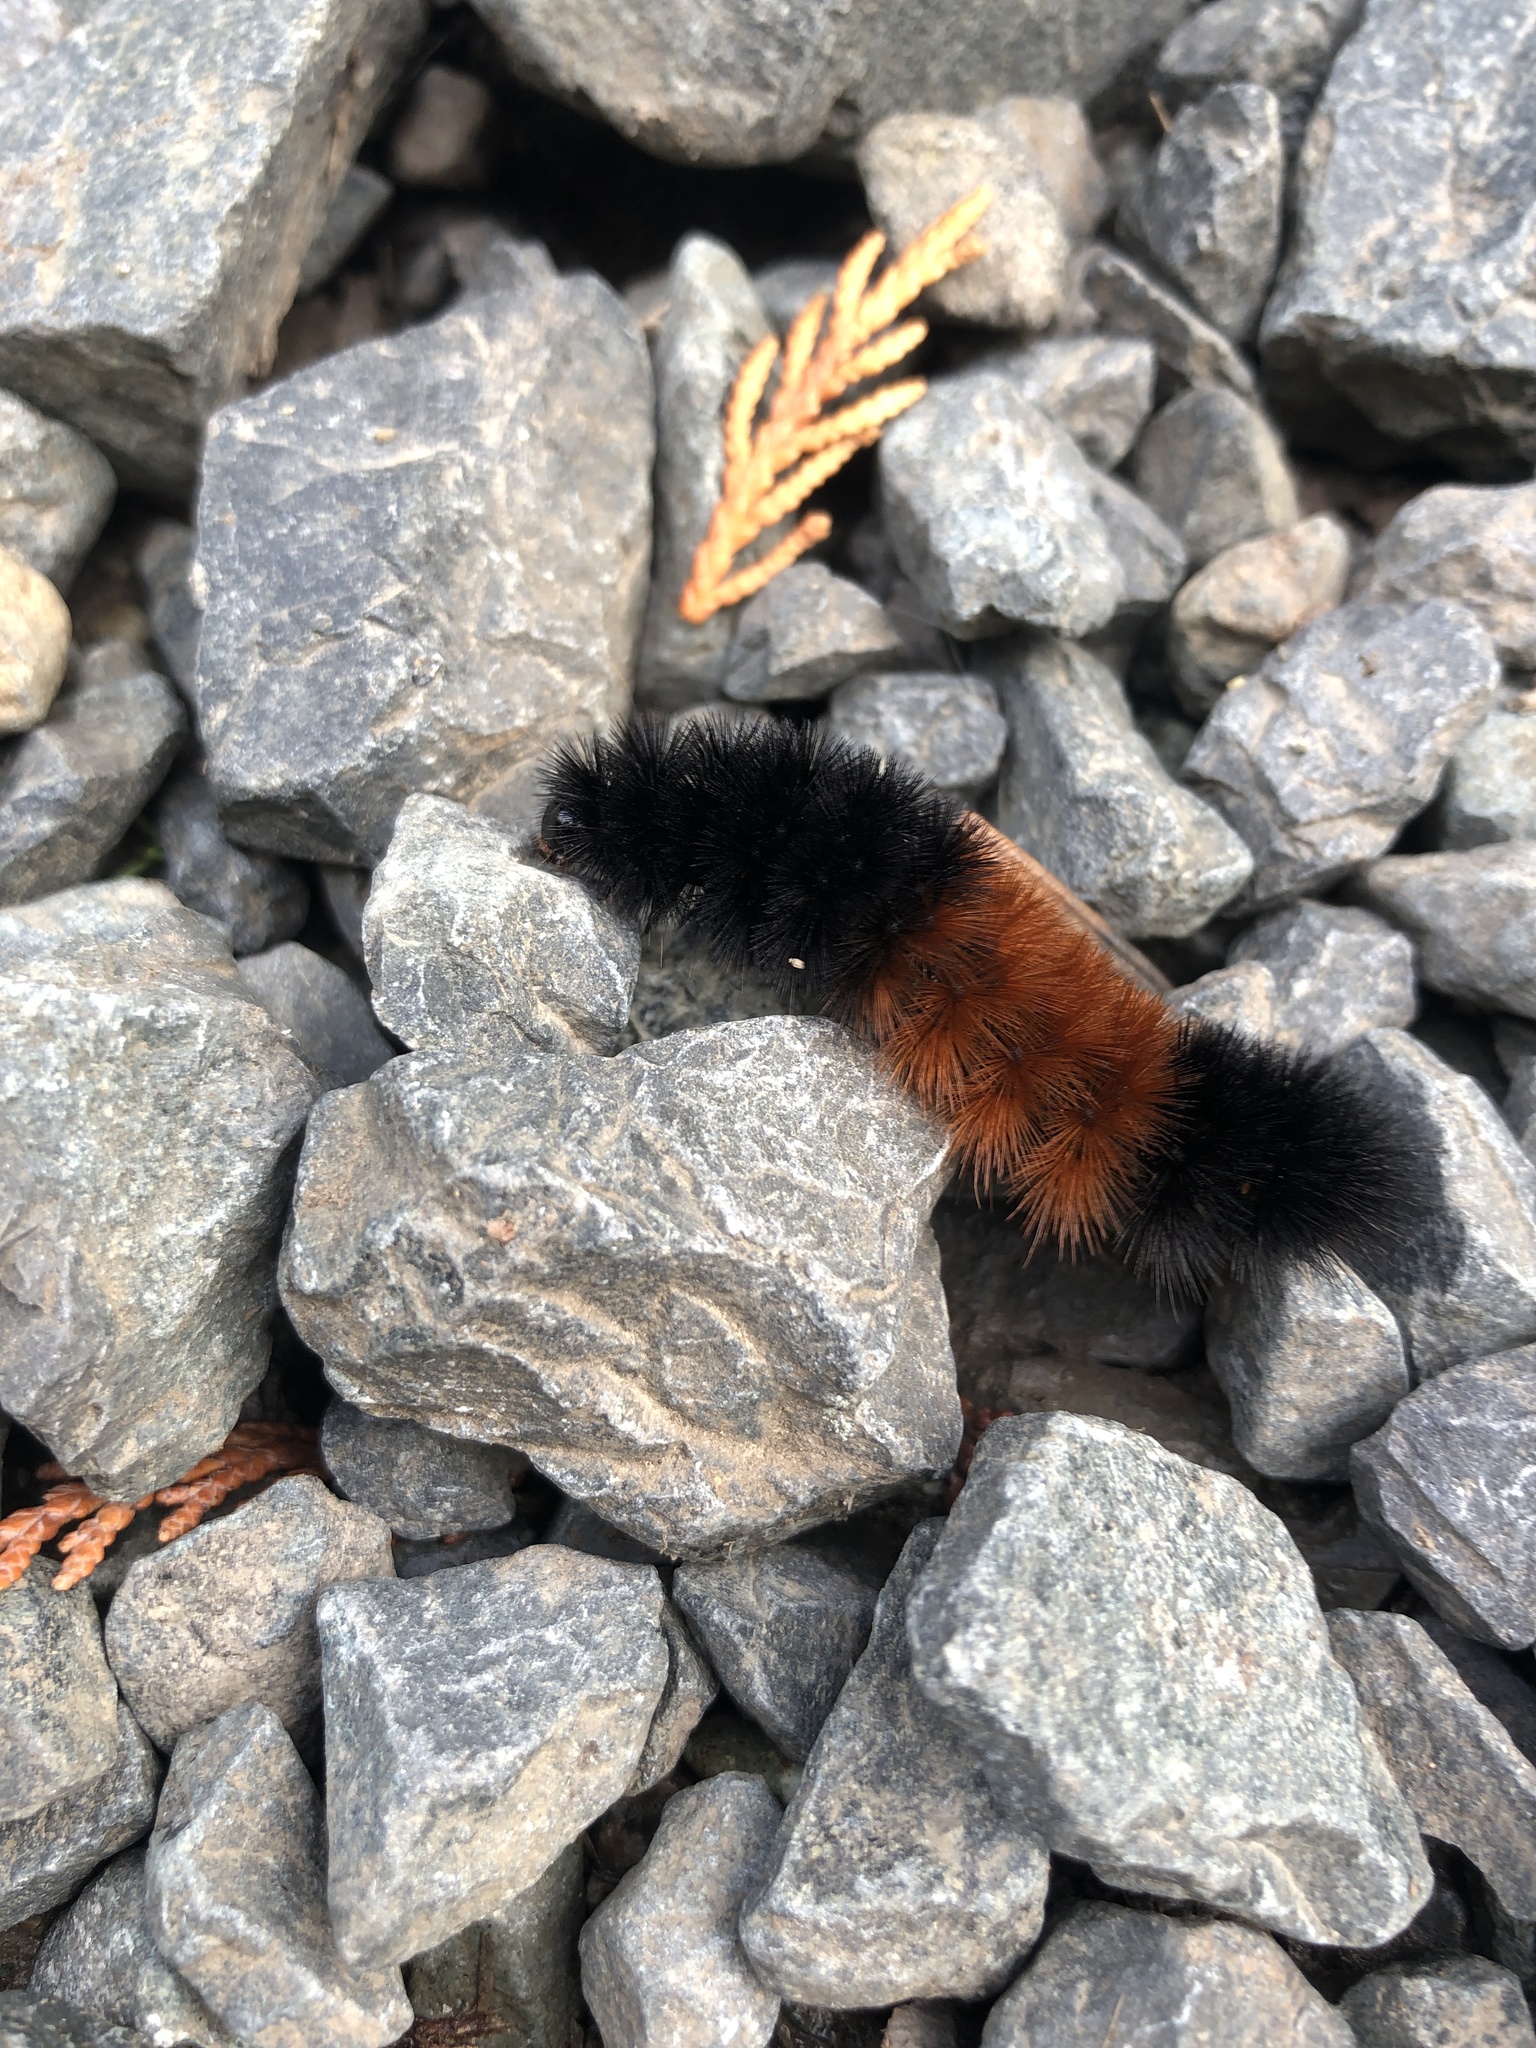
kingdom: Animalia
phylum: Arthropoda
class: Insecta
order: Lepidoptera
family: Erebidae
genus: Pyrrharctia
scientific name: Pyrrharctia isabella
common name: Isabella tiger moth
